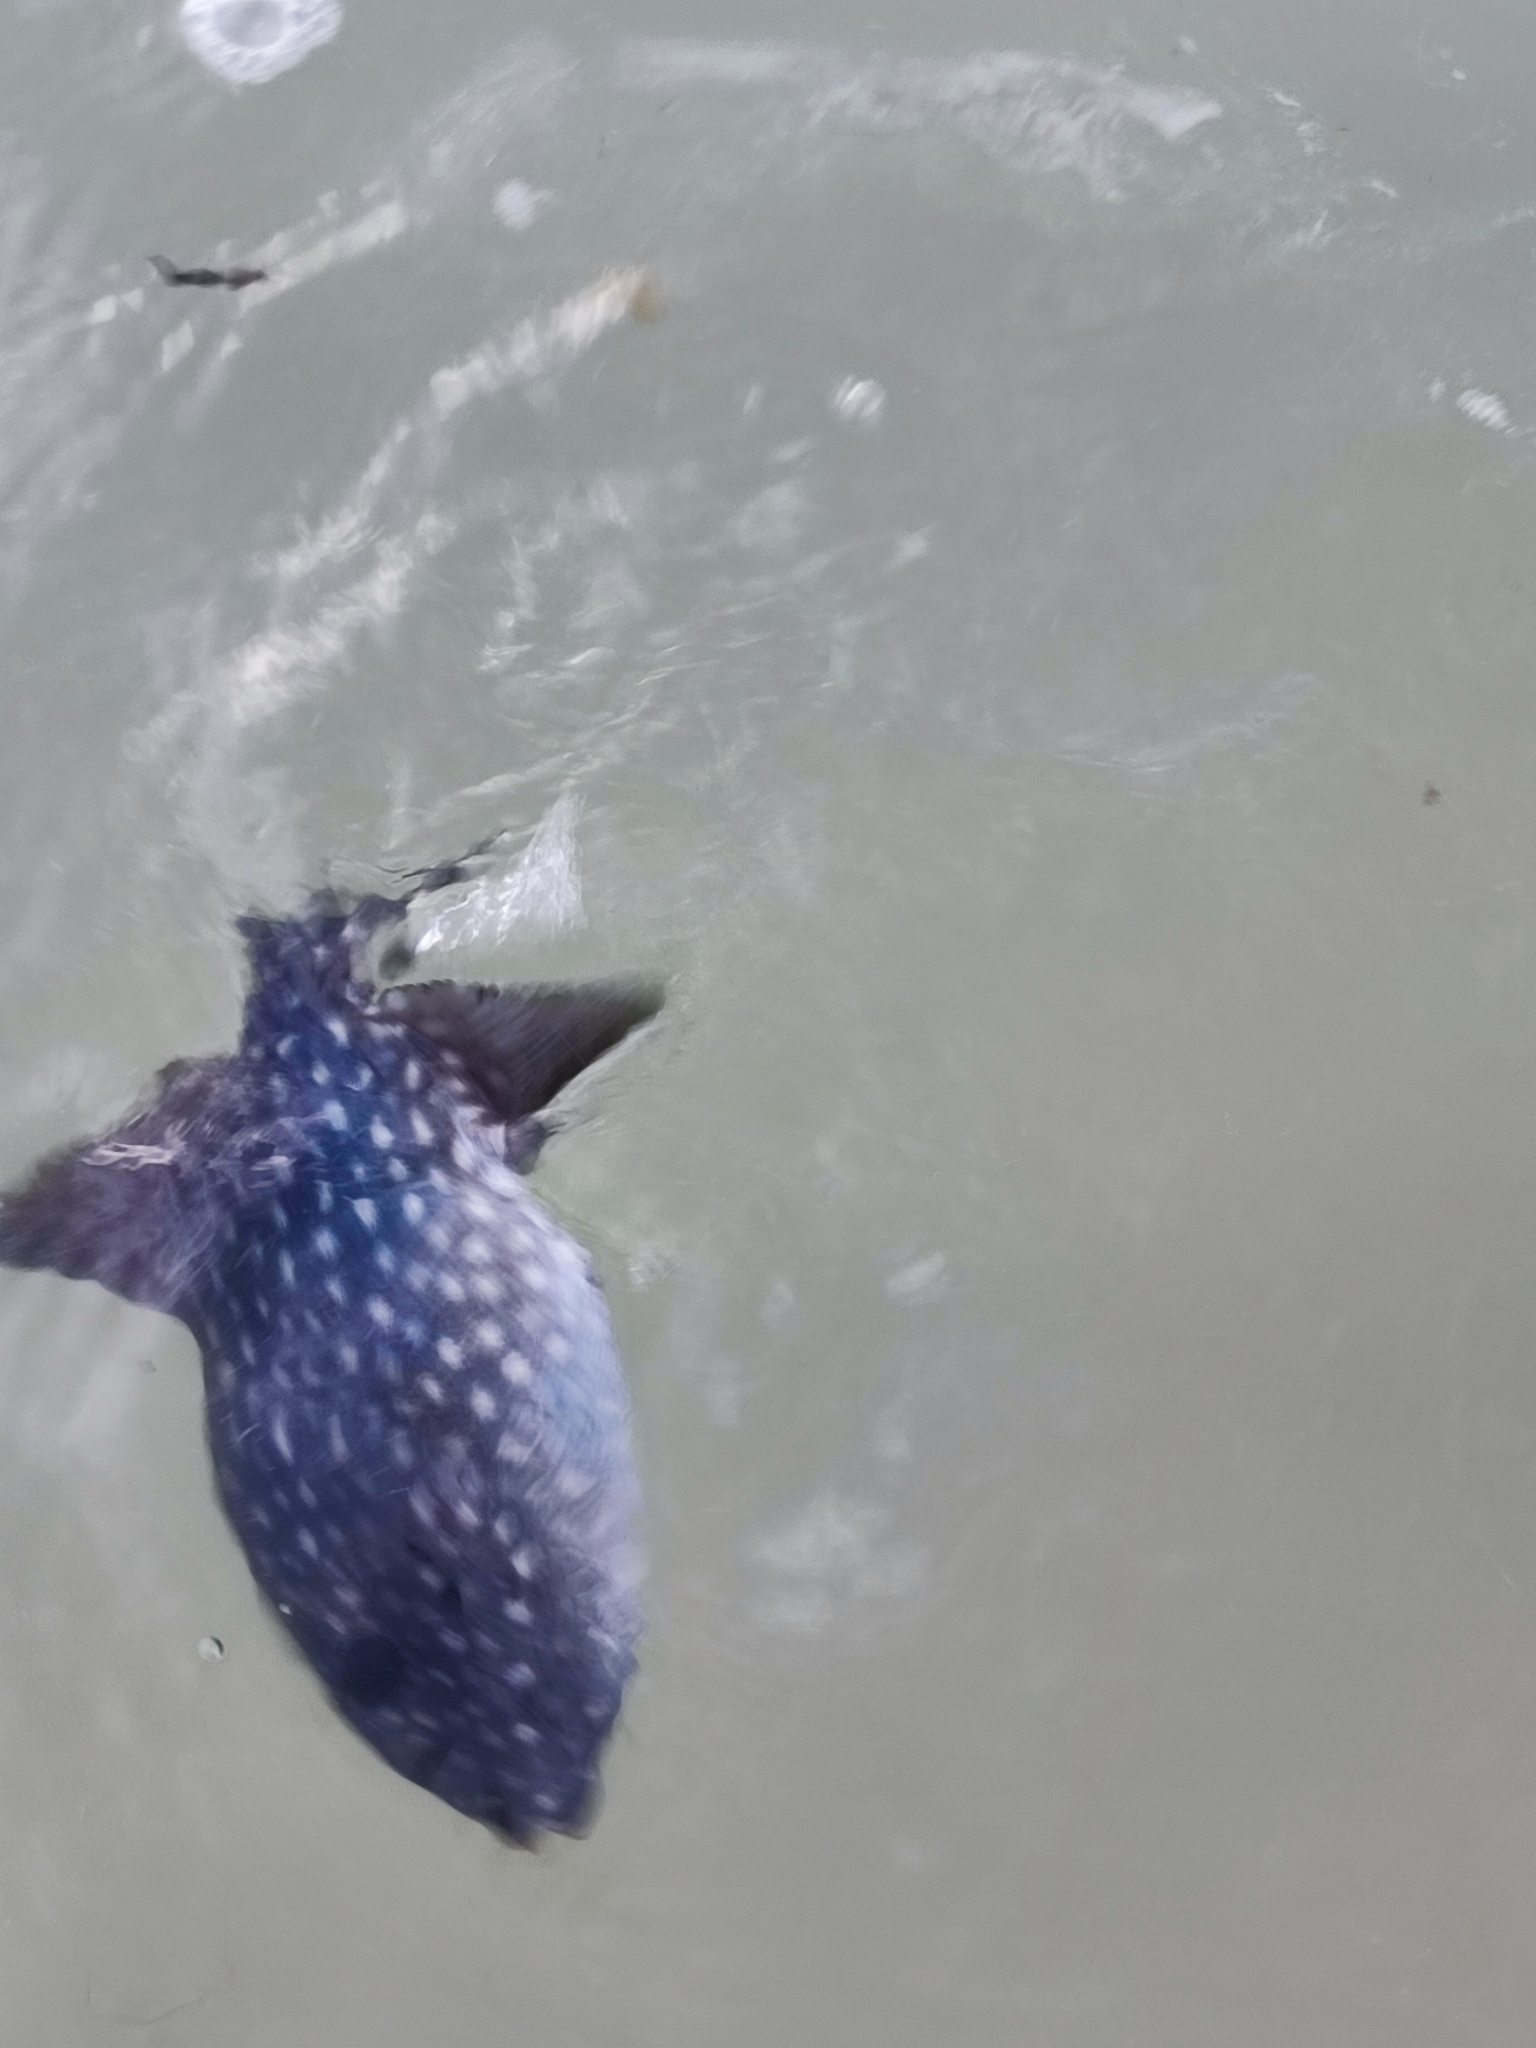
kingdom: Animalia
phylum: Chordata
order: Tetraodontiformes
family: Balistidae
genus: Canthidermis
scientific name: Canthidermis maculata
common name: Rough triggerfish
